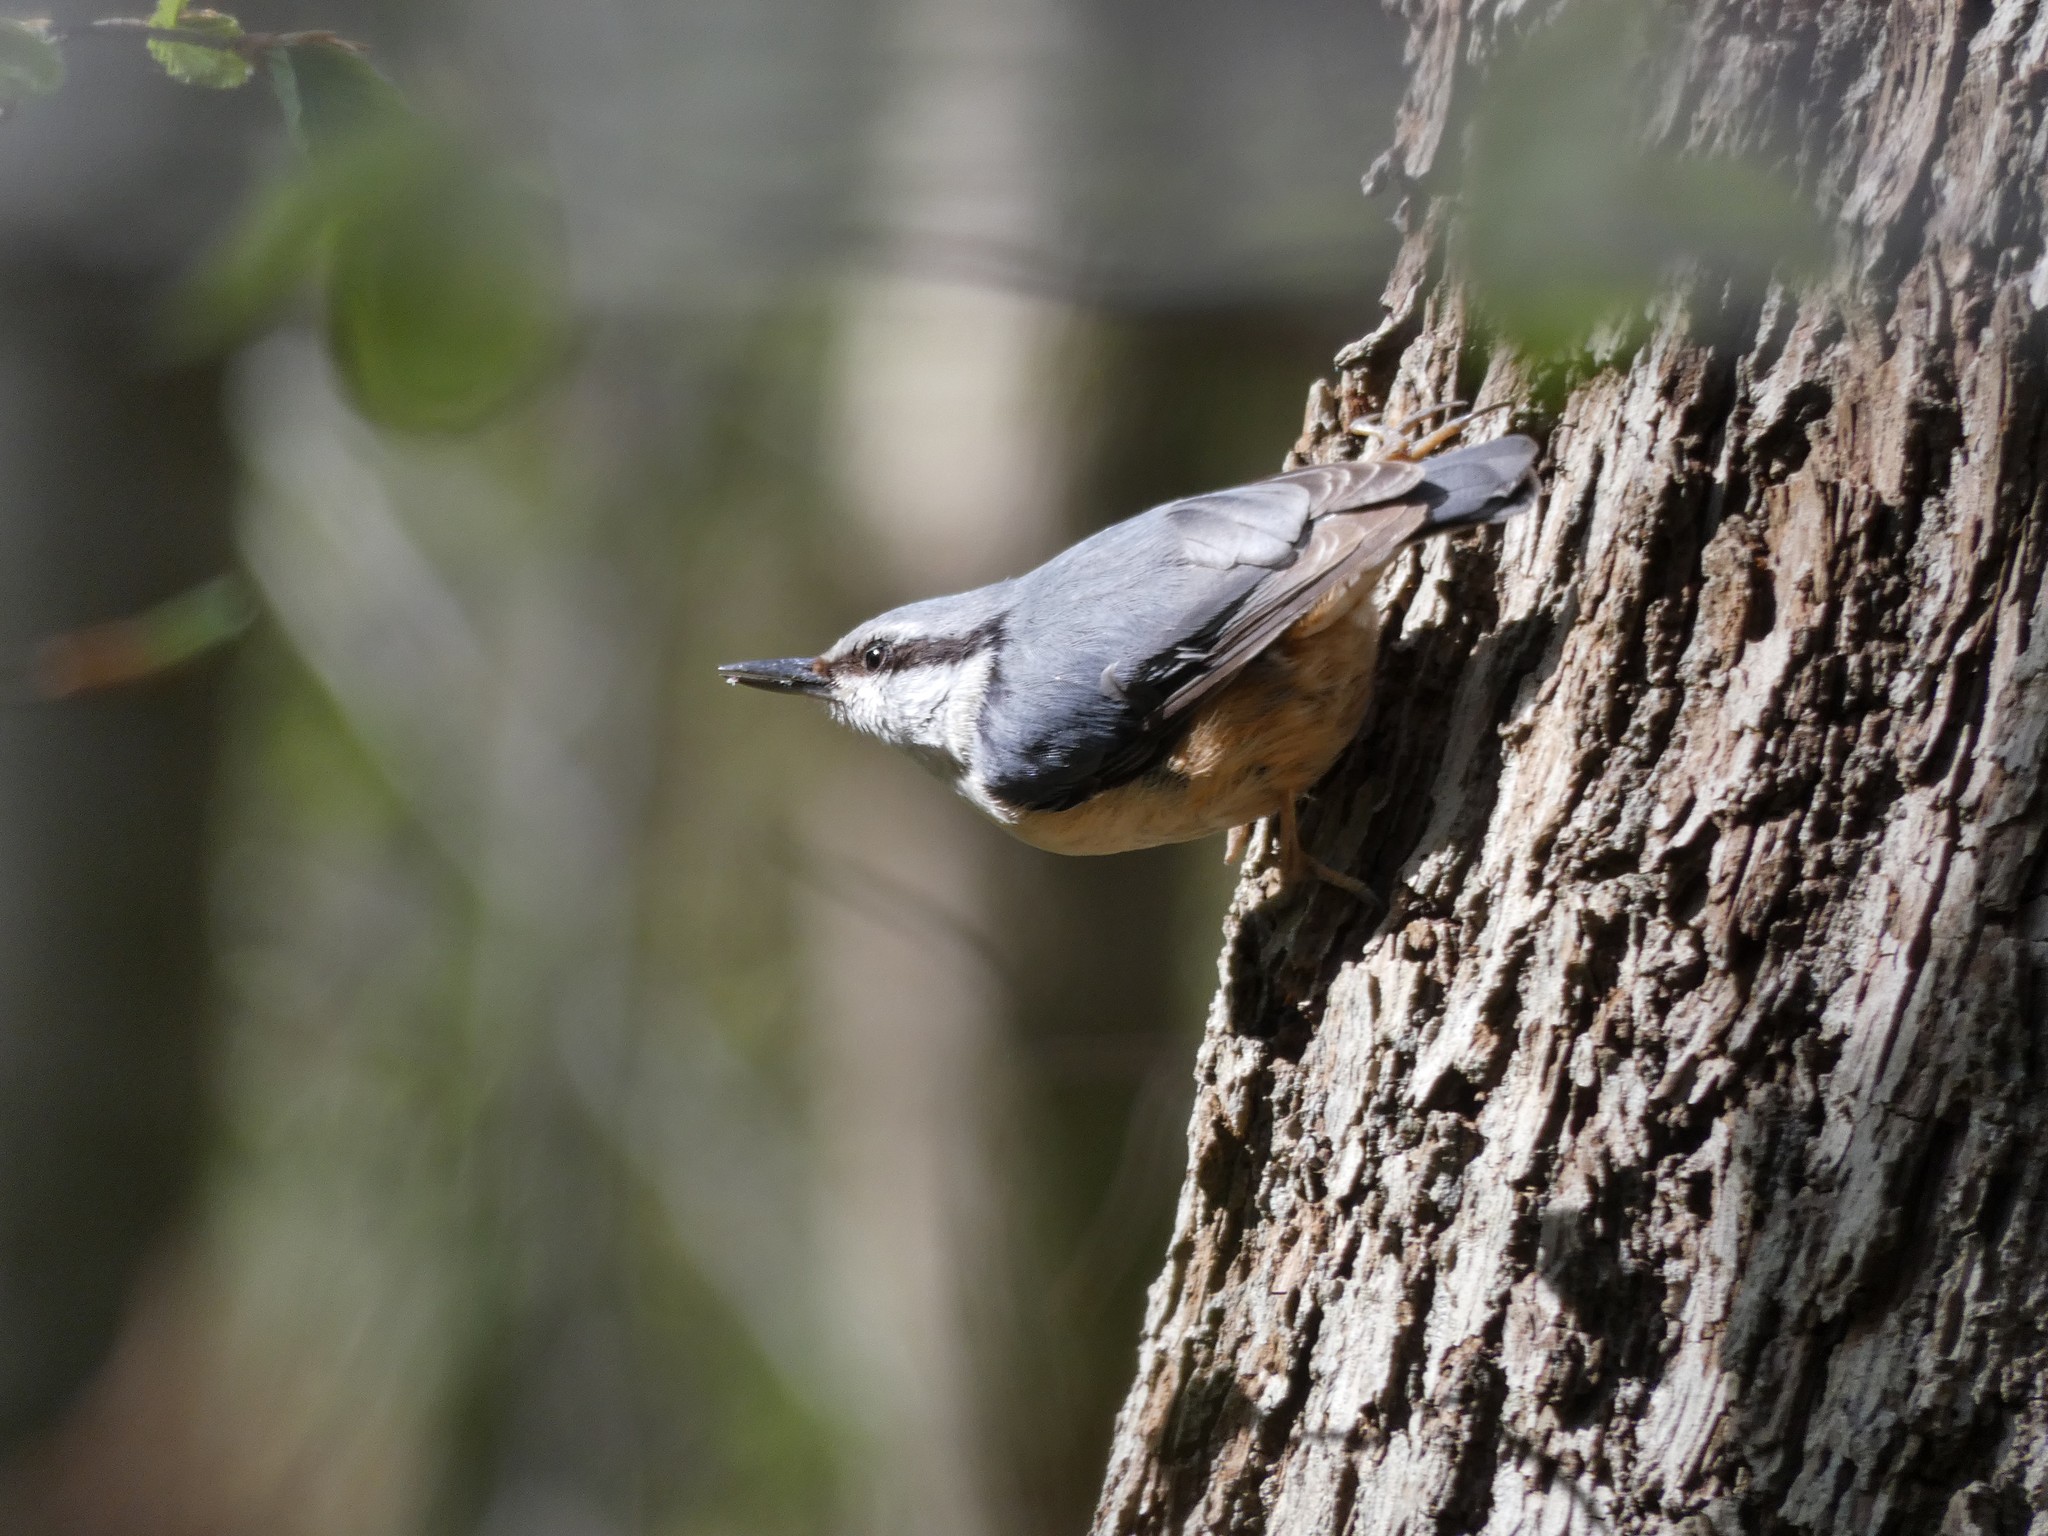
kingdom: Animalia
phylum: Chordata
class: Aves
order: Passeriformes
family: Sittidae
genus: Sitta
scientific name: Sitta europaea
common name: Eurasian nuthatch
